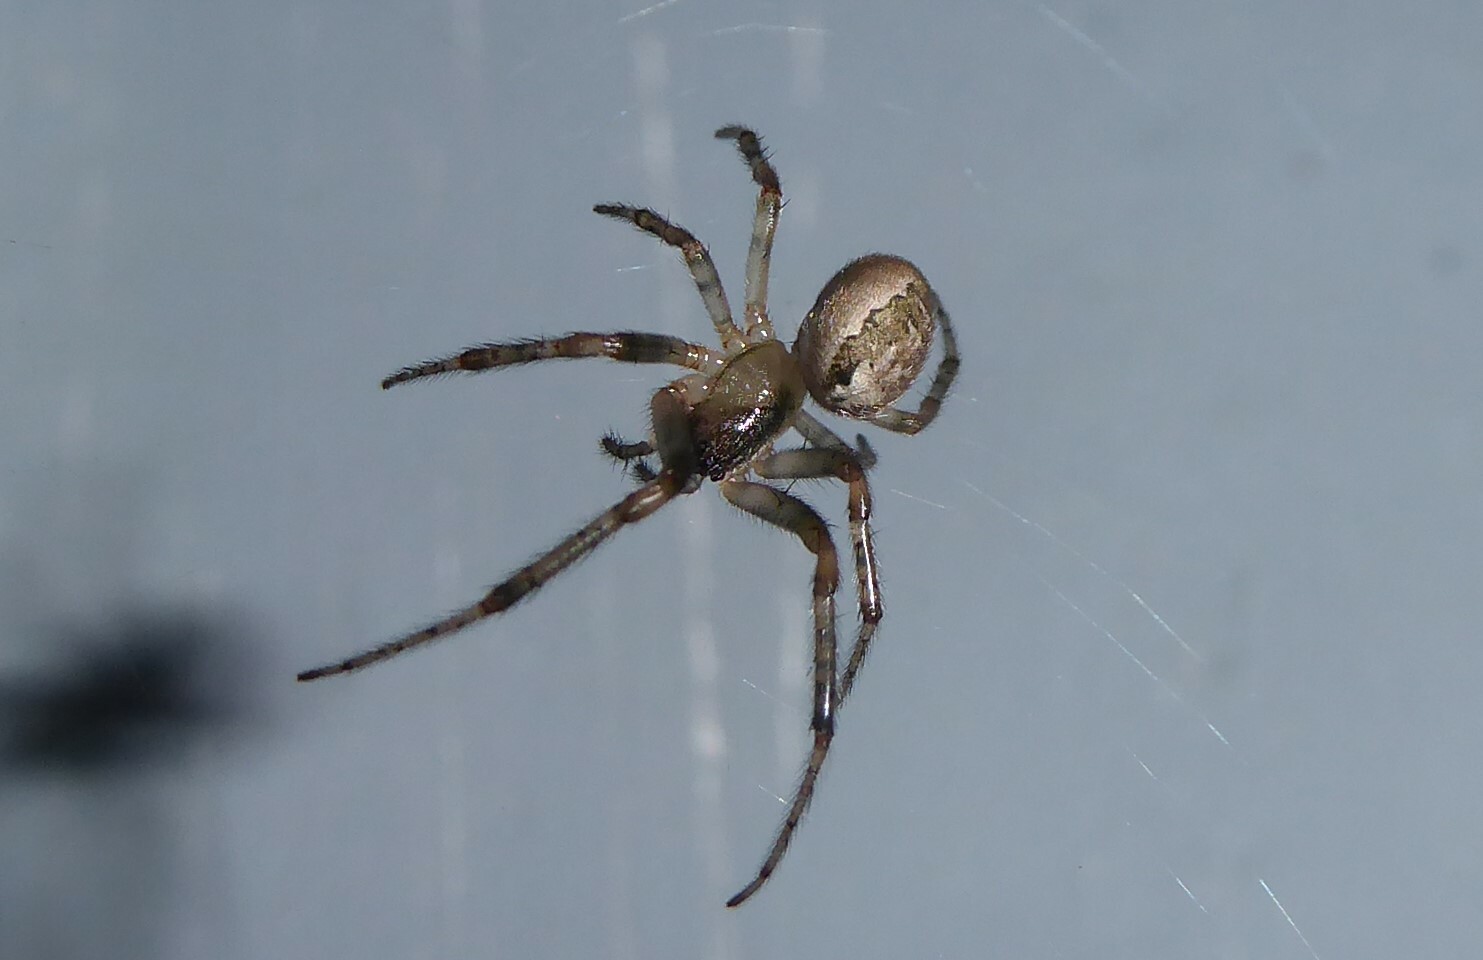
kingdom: Animalia
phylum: Arthropoda
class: Arachnida
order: Araneae
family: Araneidae
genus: Zygiella
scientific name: Zygiella x-notata
